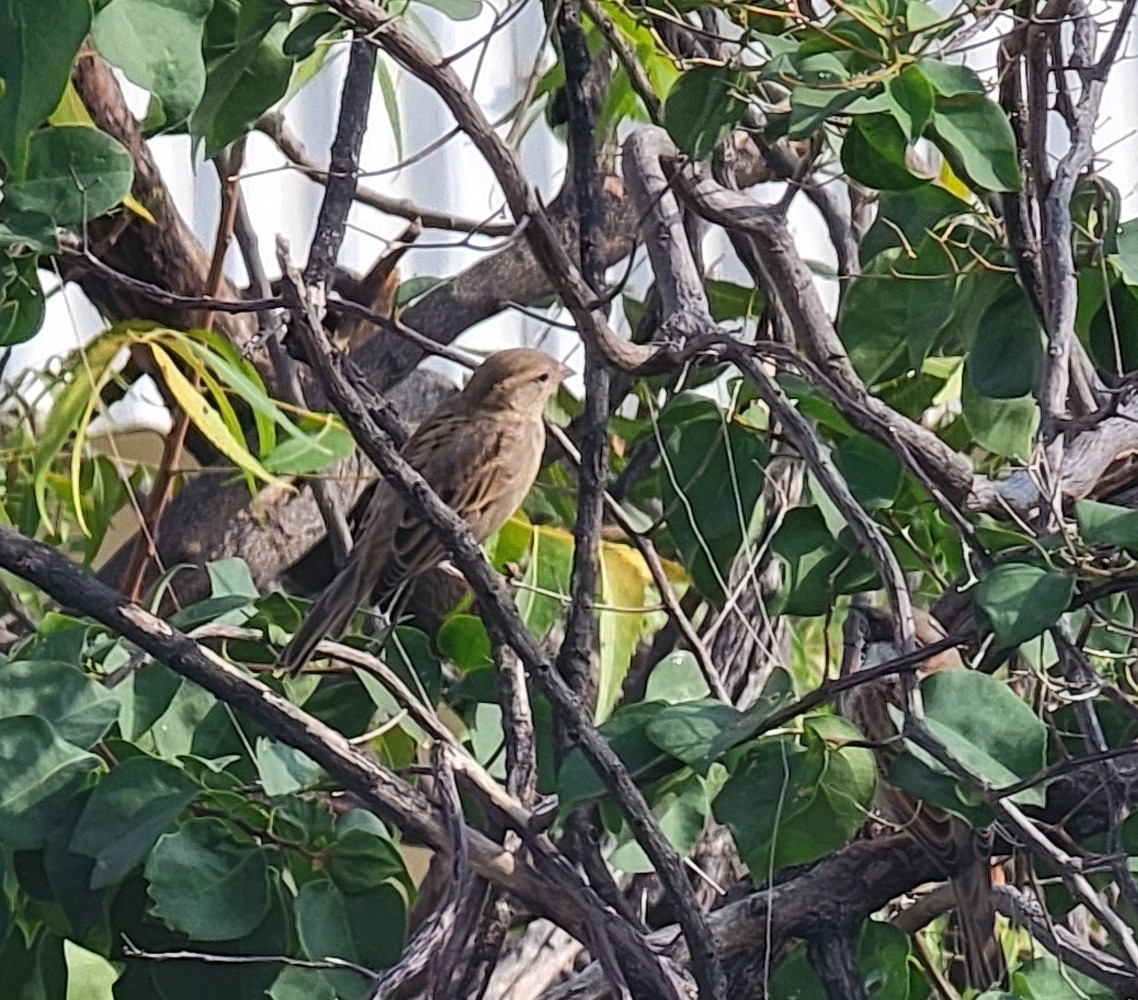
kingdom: Animalia
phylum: Chordata
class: Aves
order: Passeriformes
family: Passeridae
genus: Passer
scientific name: Passer domesticus
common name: House sparrow
